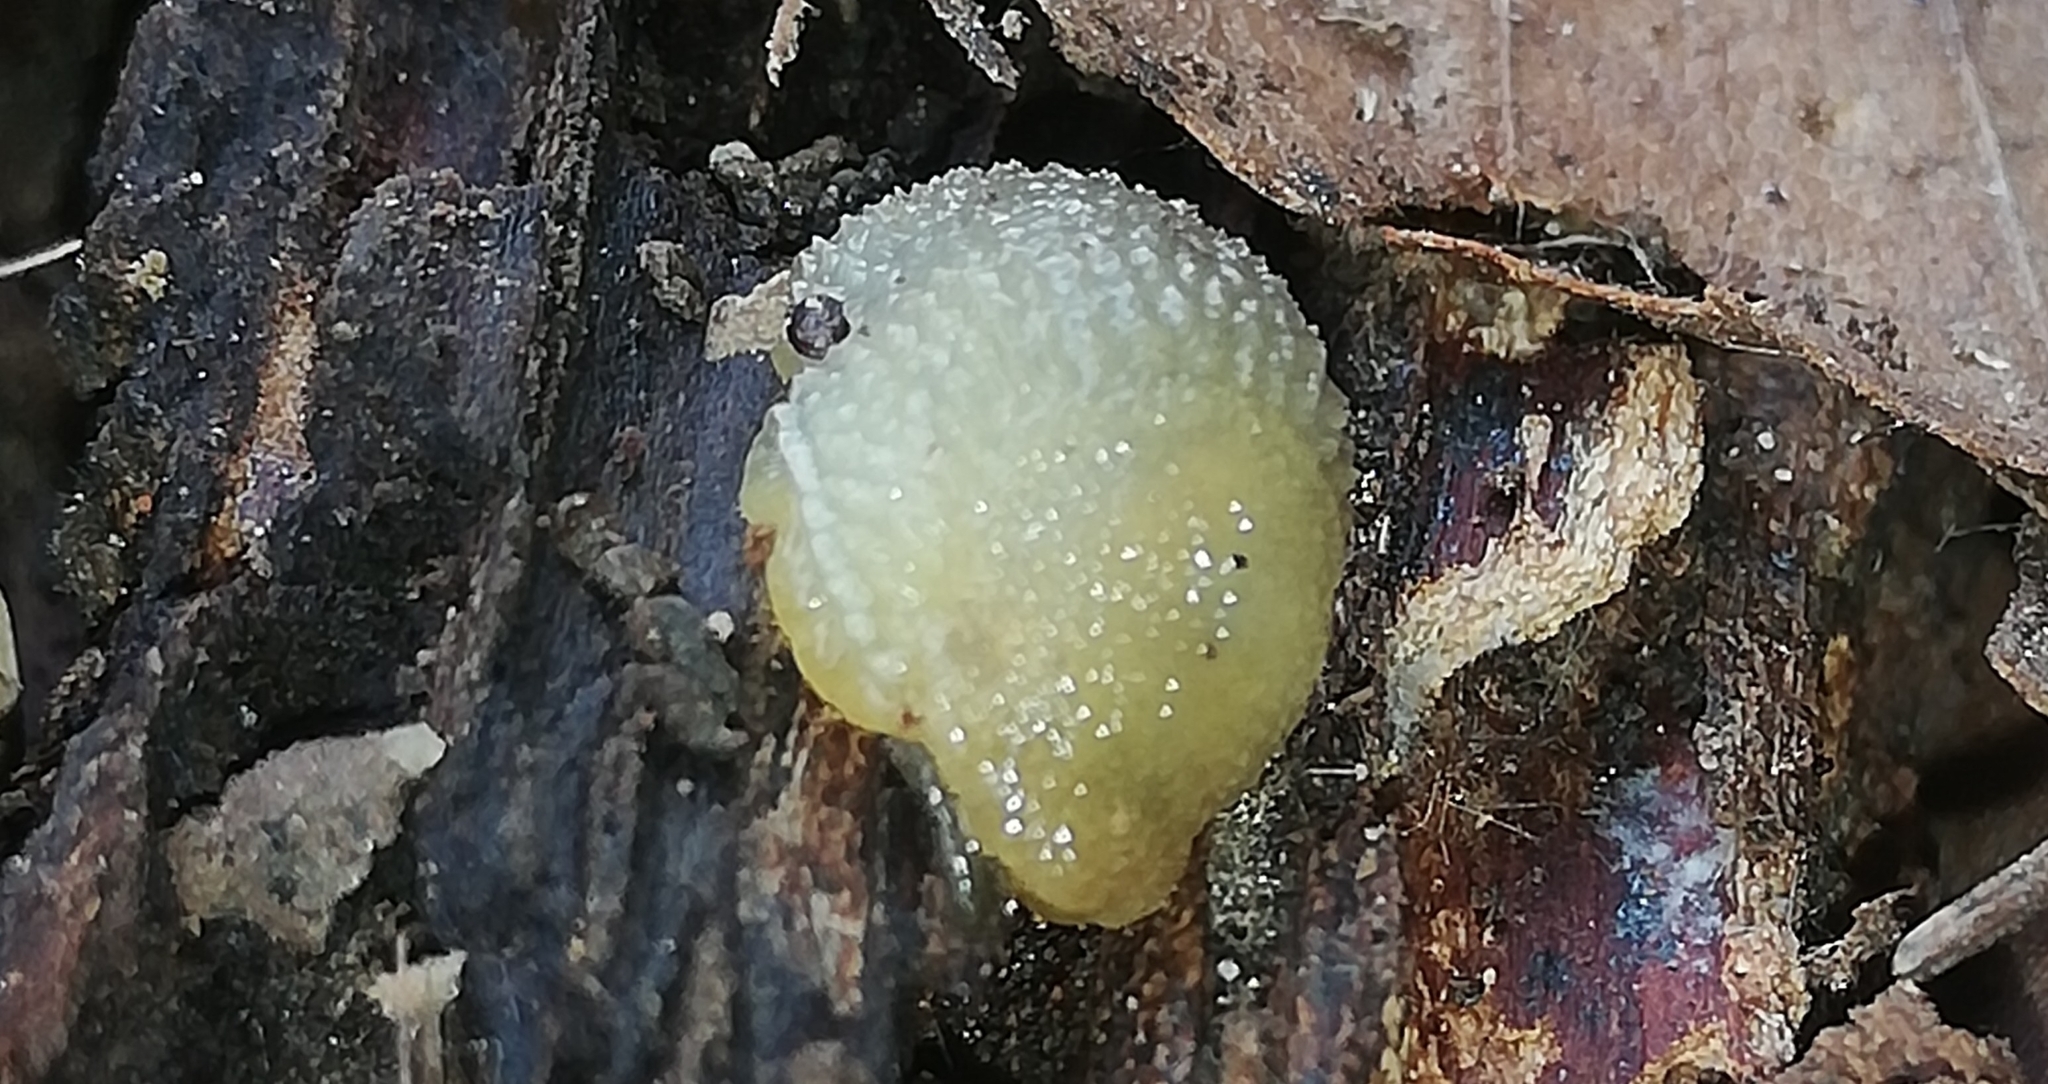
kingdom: Animalia
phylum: Mollusca
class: Gastropoda
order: Stylommatophora
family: Arionidae
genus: Arion
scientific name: Arion intermedius
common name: Hedgehog slug
